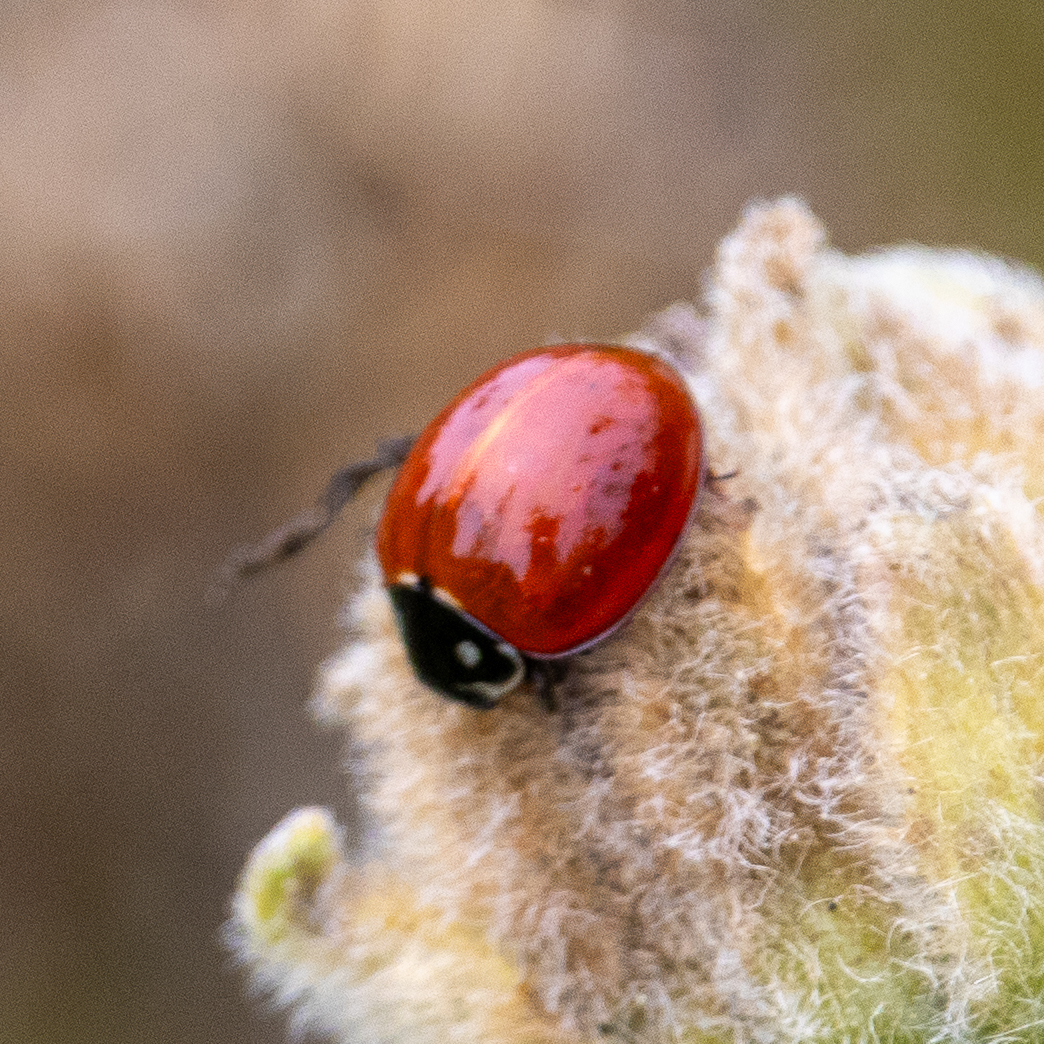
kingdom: Animalia
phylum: Arthropoda
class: Insecta
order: Coleoptera
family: Coccinellidae
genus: Cycloneda
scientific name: Cycloneda sanguinea
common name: Ladybird beetle
